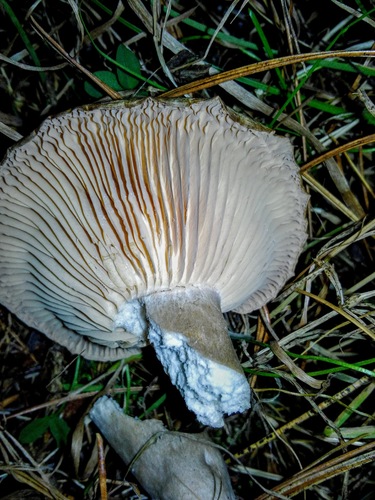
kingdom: Fungi
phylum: Basidiomycota
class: Agaricomycetes
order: Agaricales
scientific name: Agaricales
